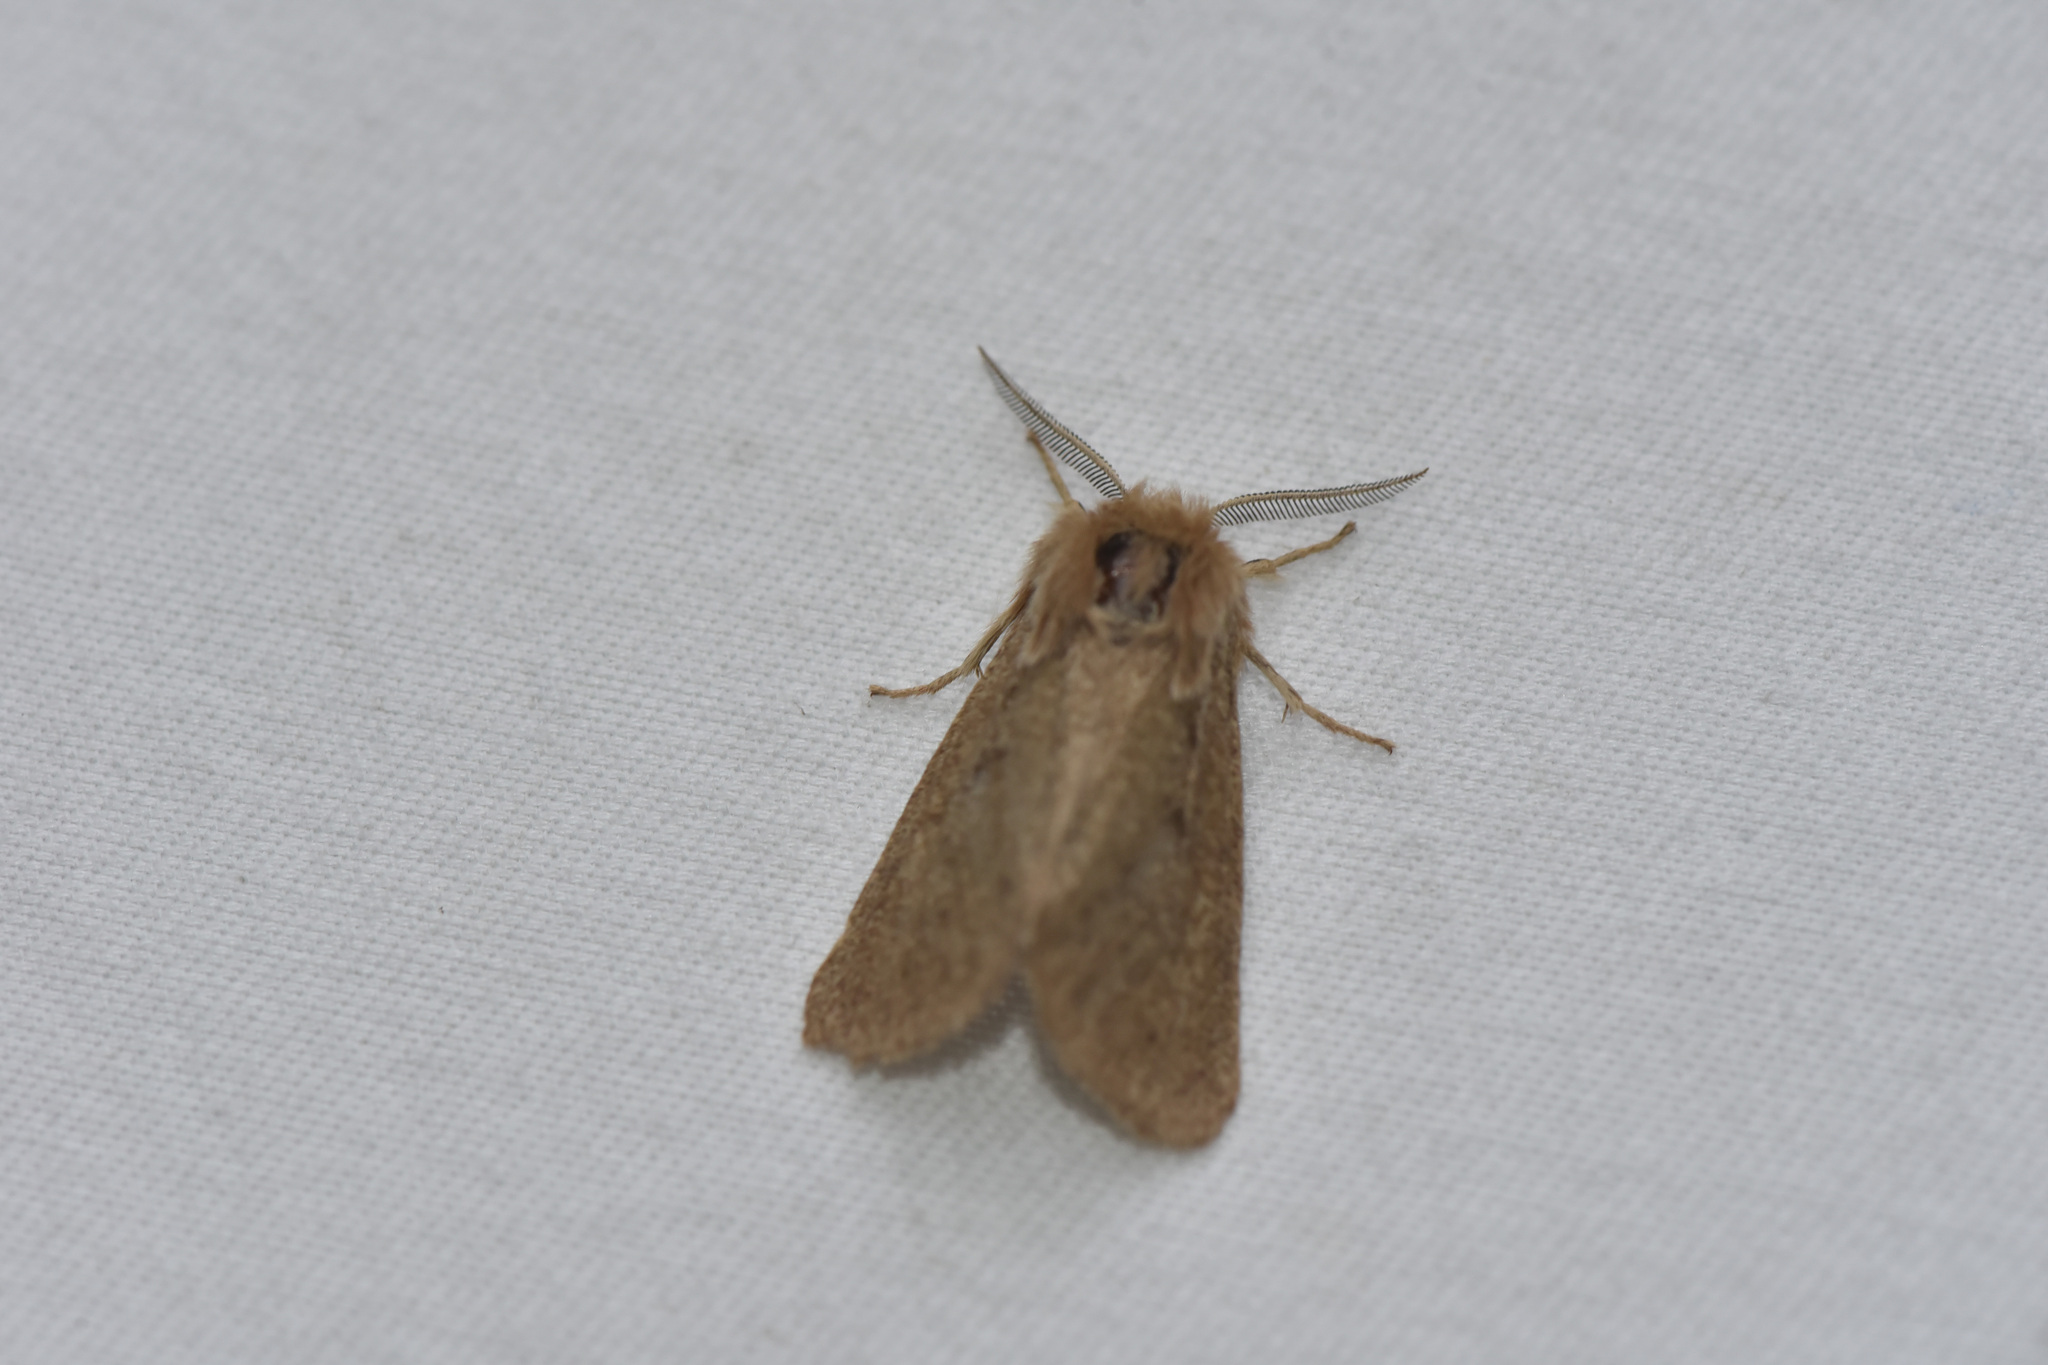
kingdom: Animalia
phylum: Arthropoda
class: Insecta
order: Lepidoptera
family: Erebidae
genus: Spilosoma
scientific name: Spilosoma vagans
